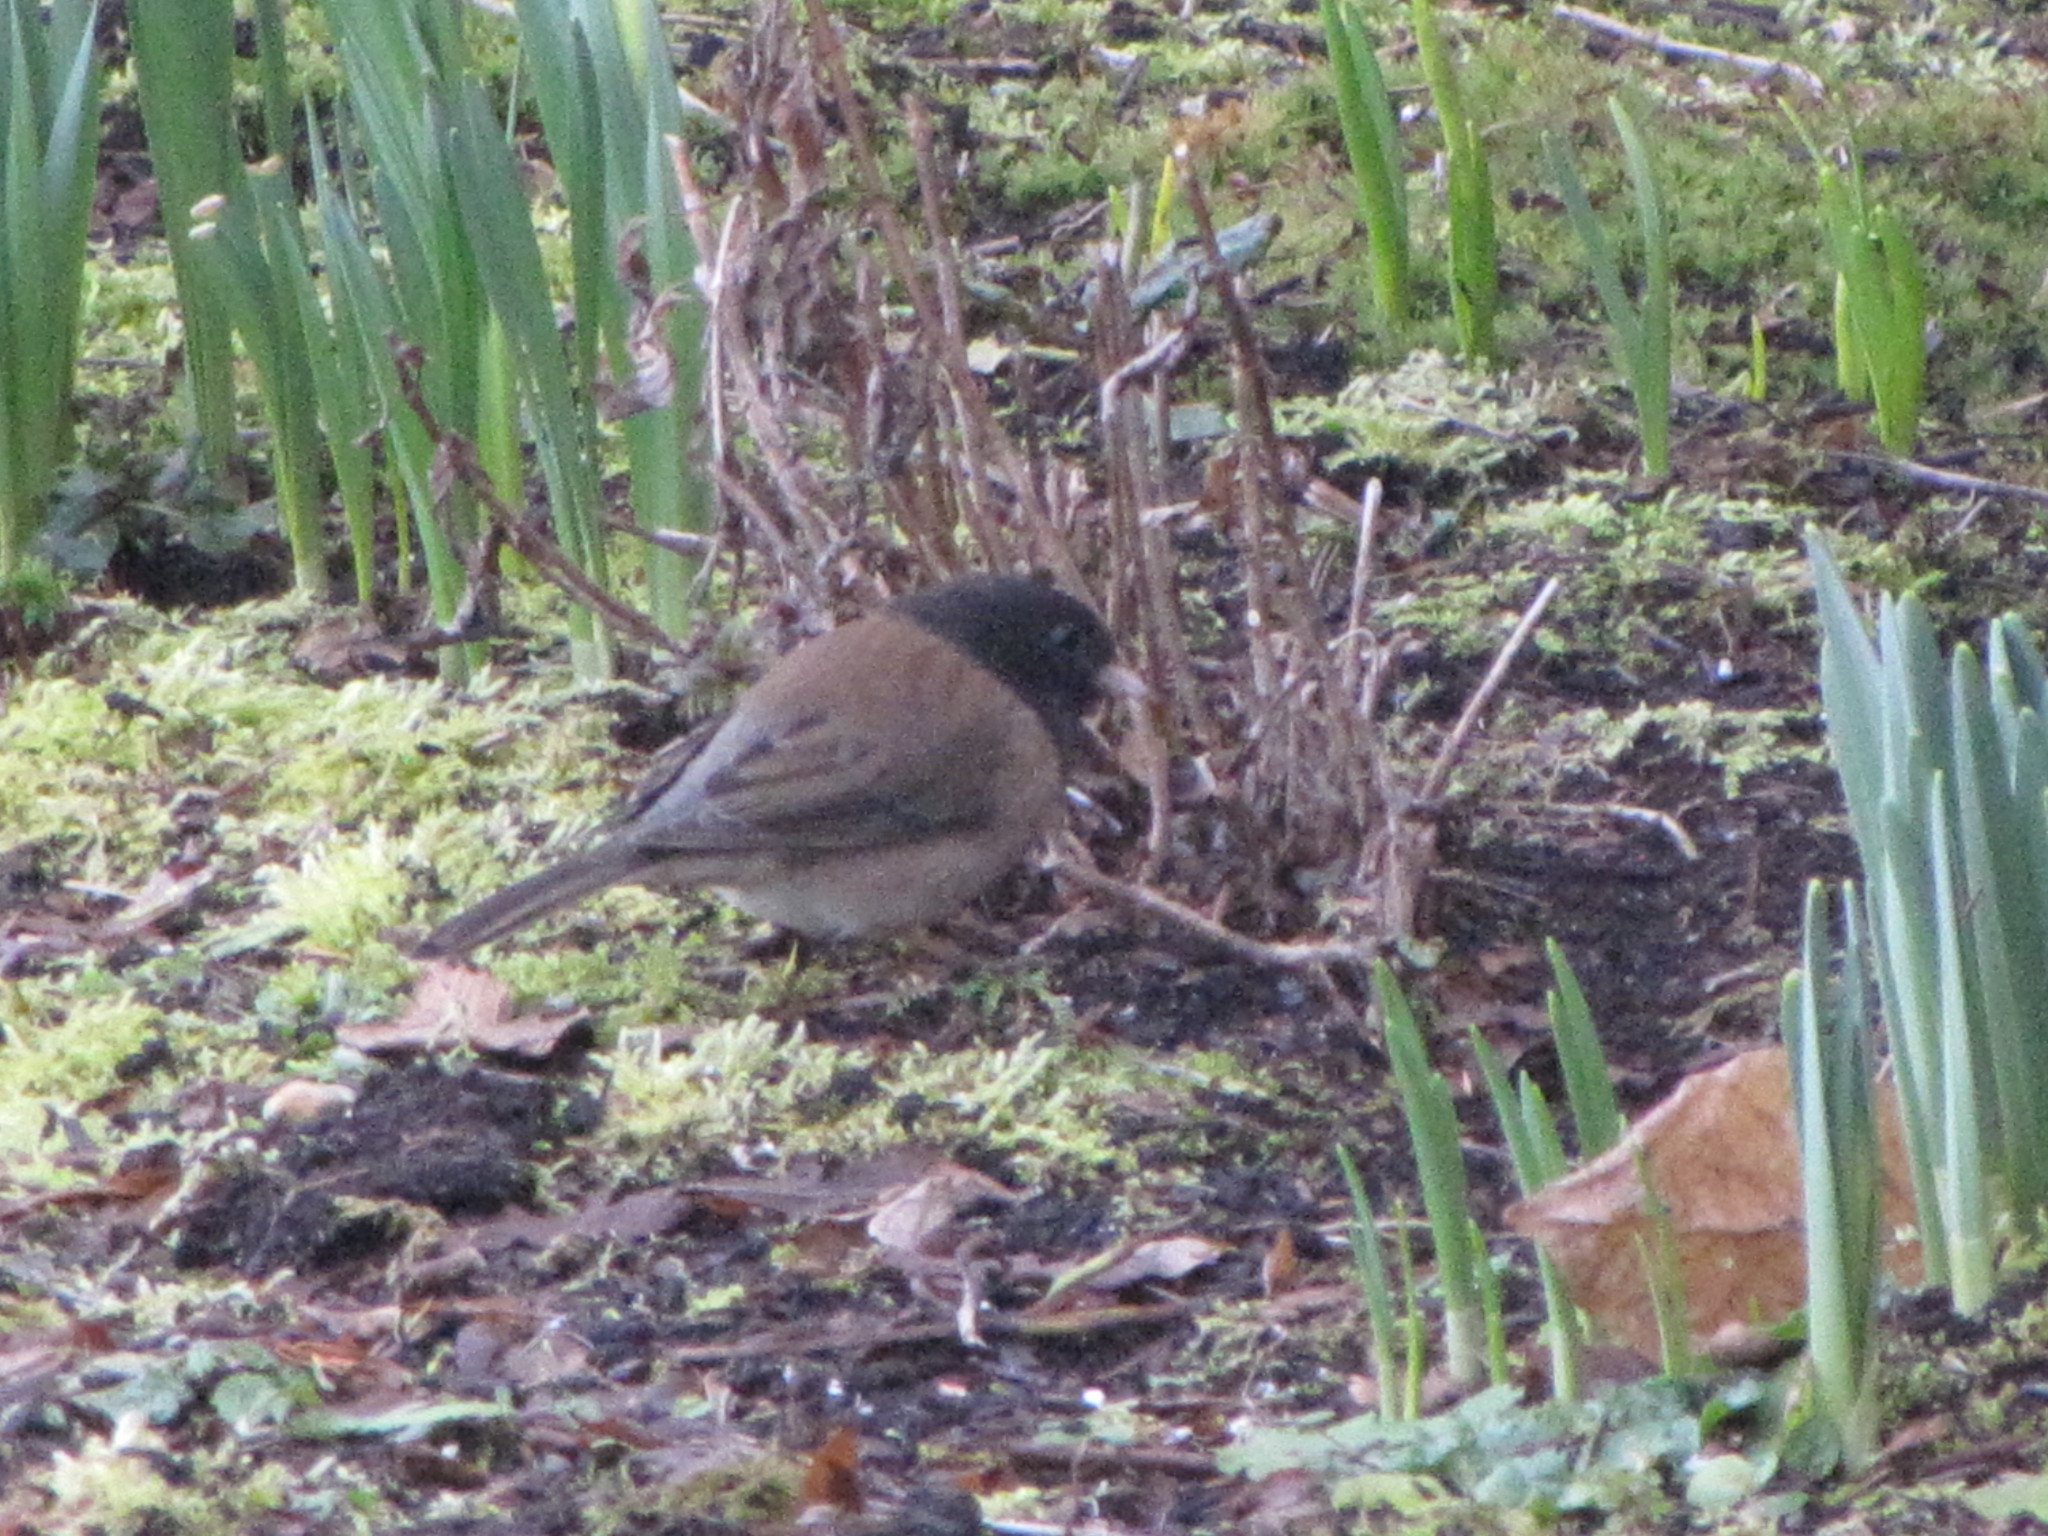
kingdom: Animalia
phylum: Chordata
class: Aves
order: Passeriformes
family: Passerellidae
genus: Junco
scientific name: Junco hyemalis
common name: Dark-eyed junco
